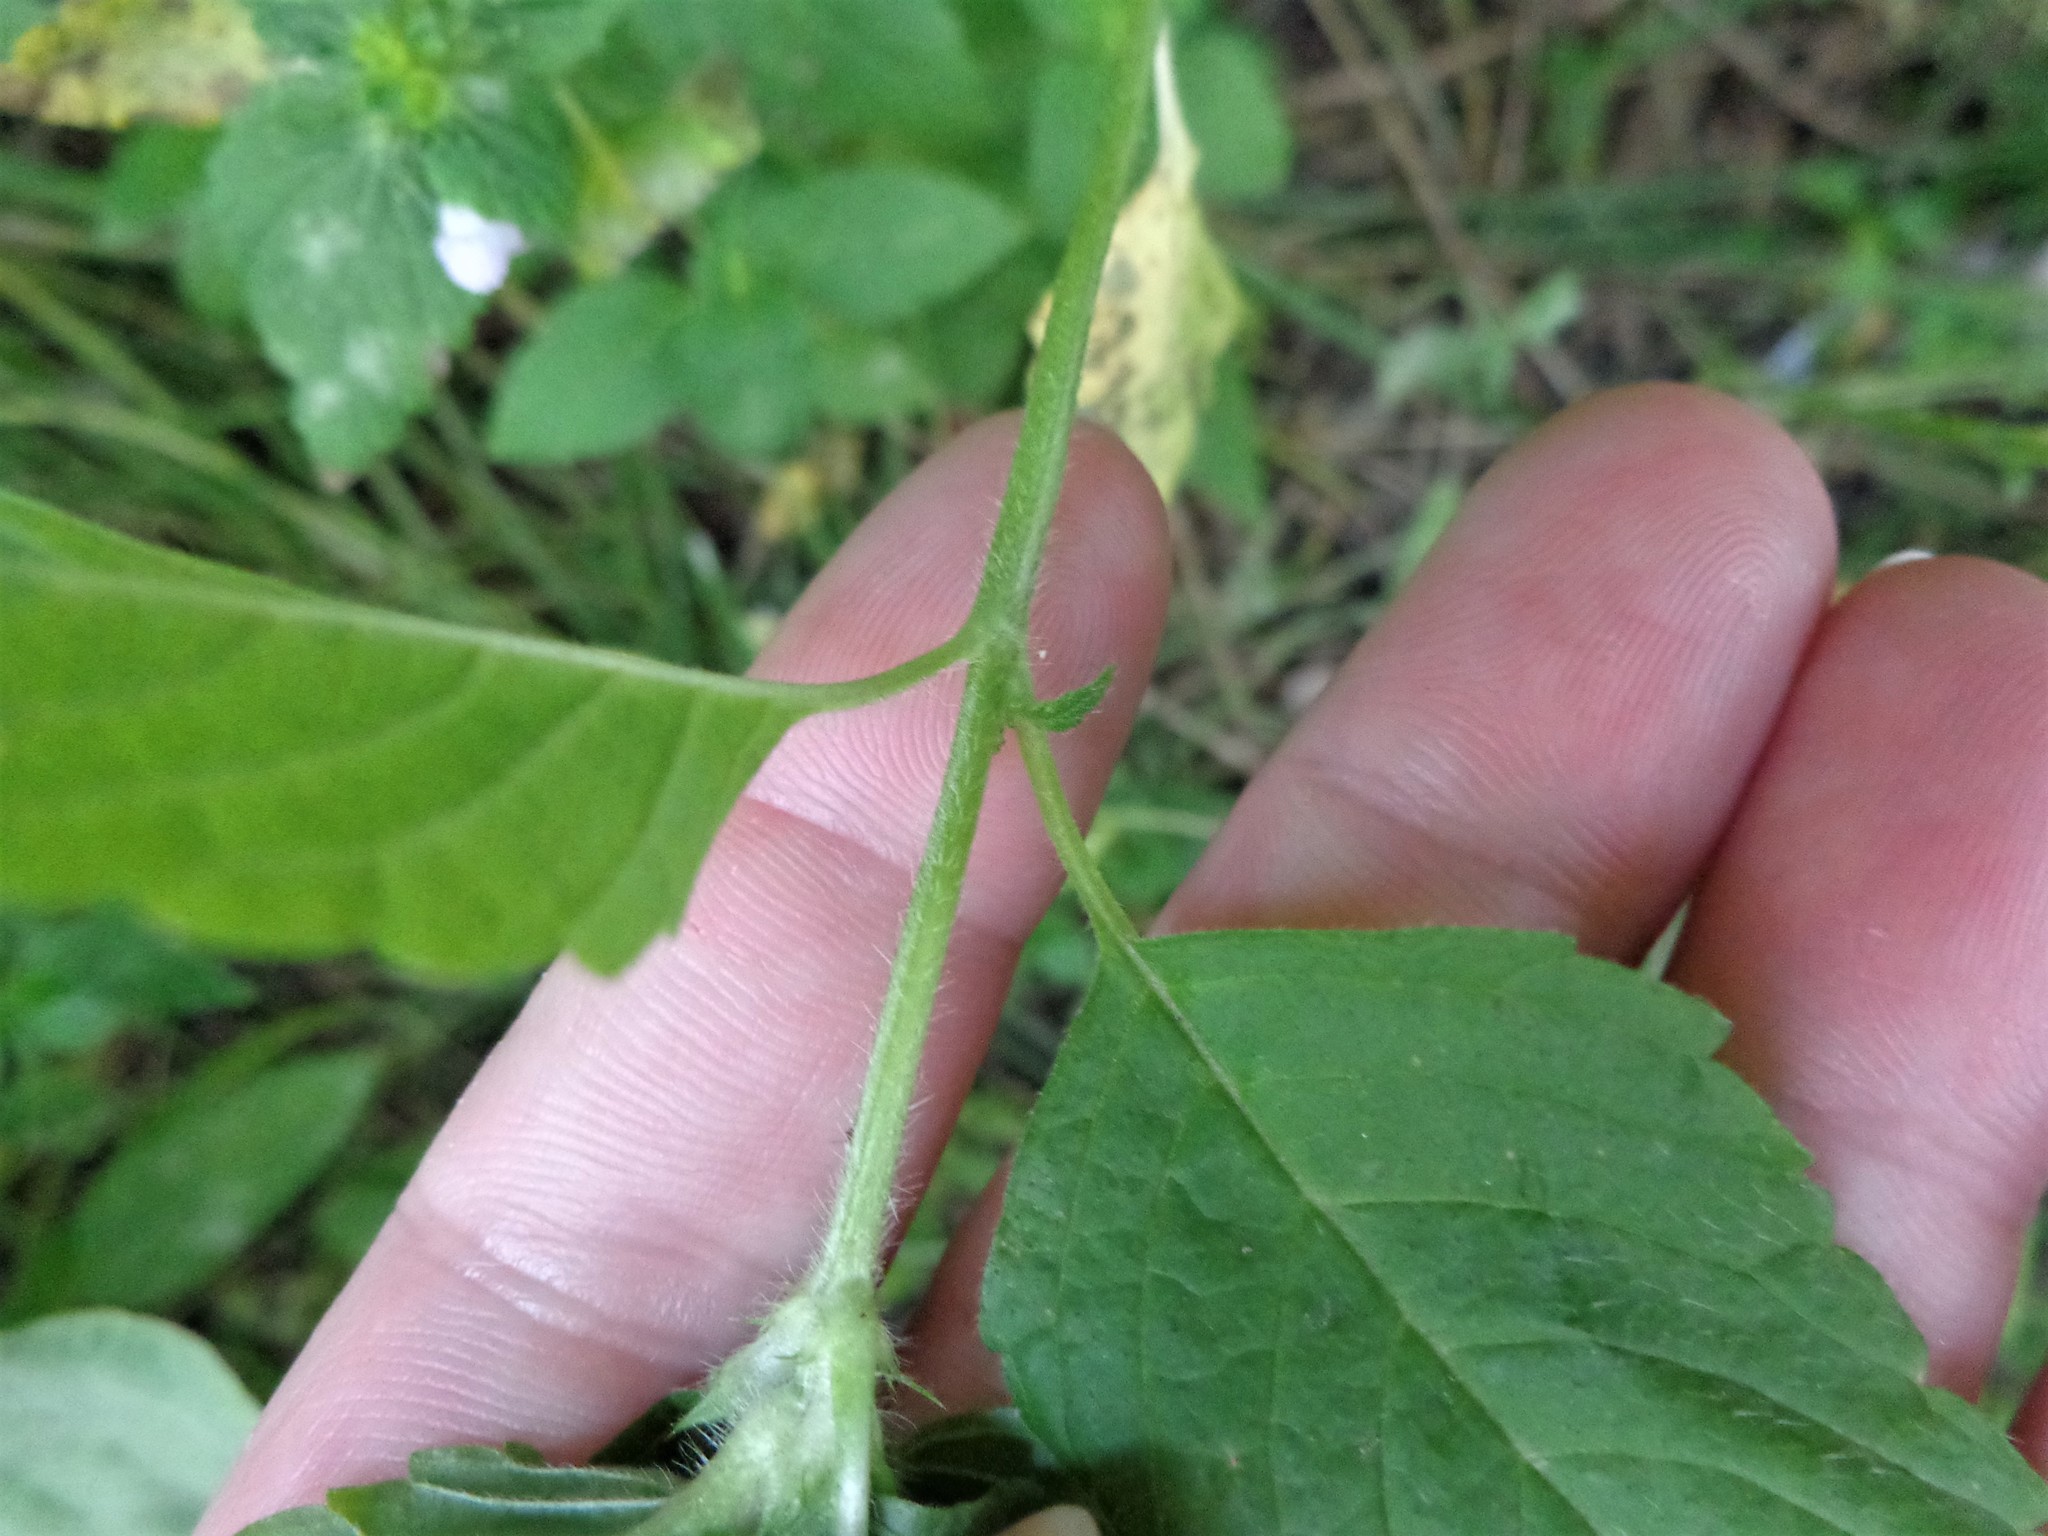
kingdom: Plantae
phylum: Tracheophyta
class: Magnoliopsida
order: Lamiales
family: Lamiaceae
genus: Galeopsis
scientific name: Galeopsis speciosa
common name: Large-flowered hemp-nettle
